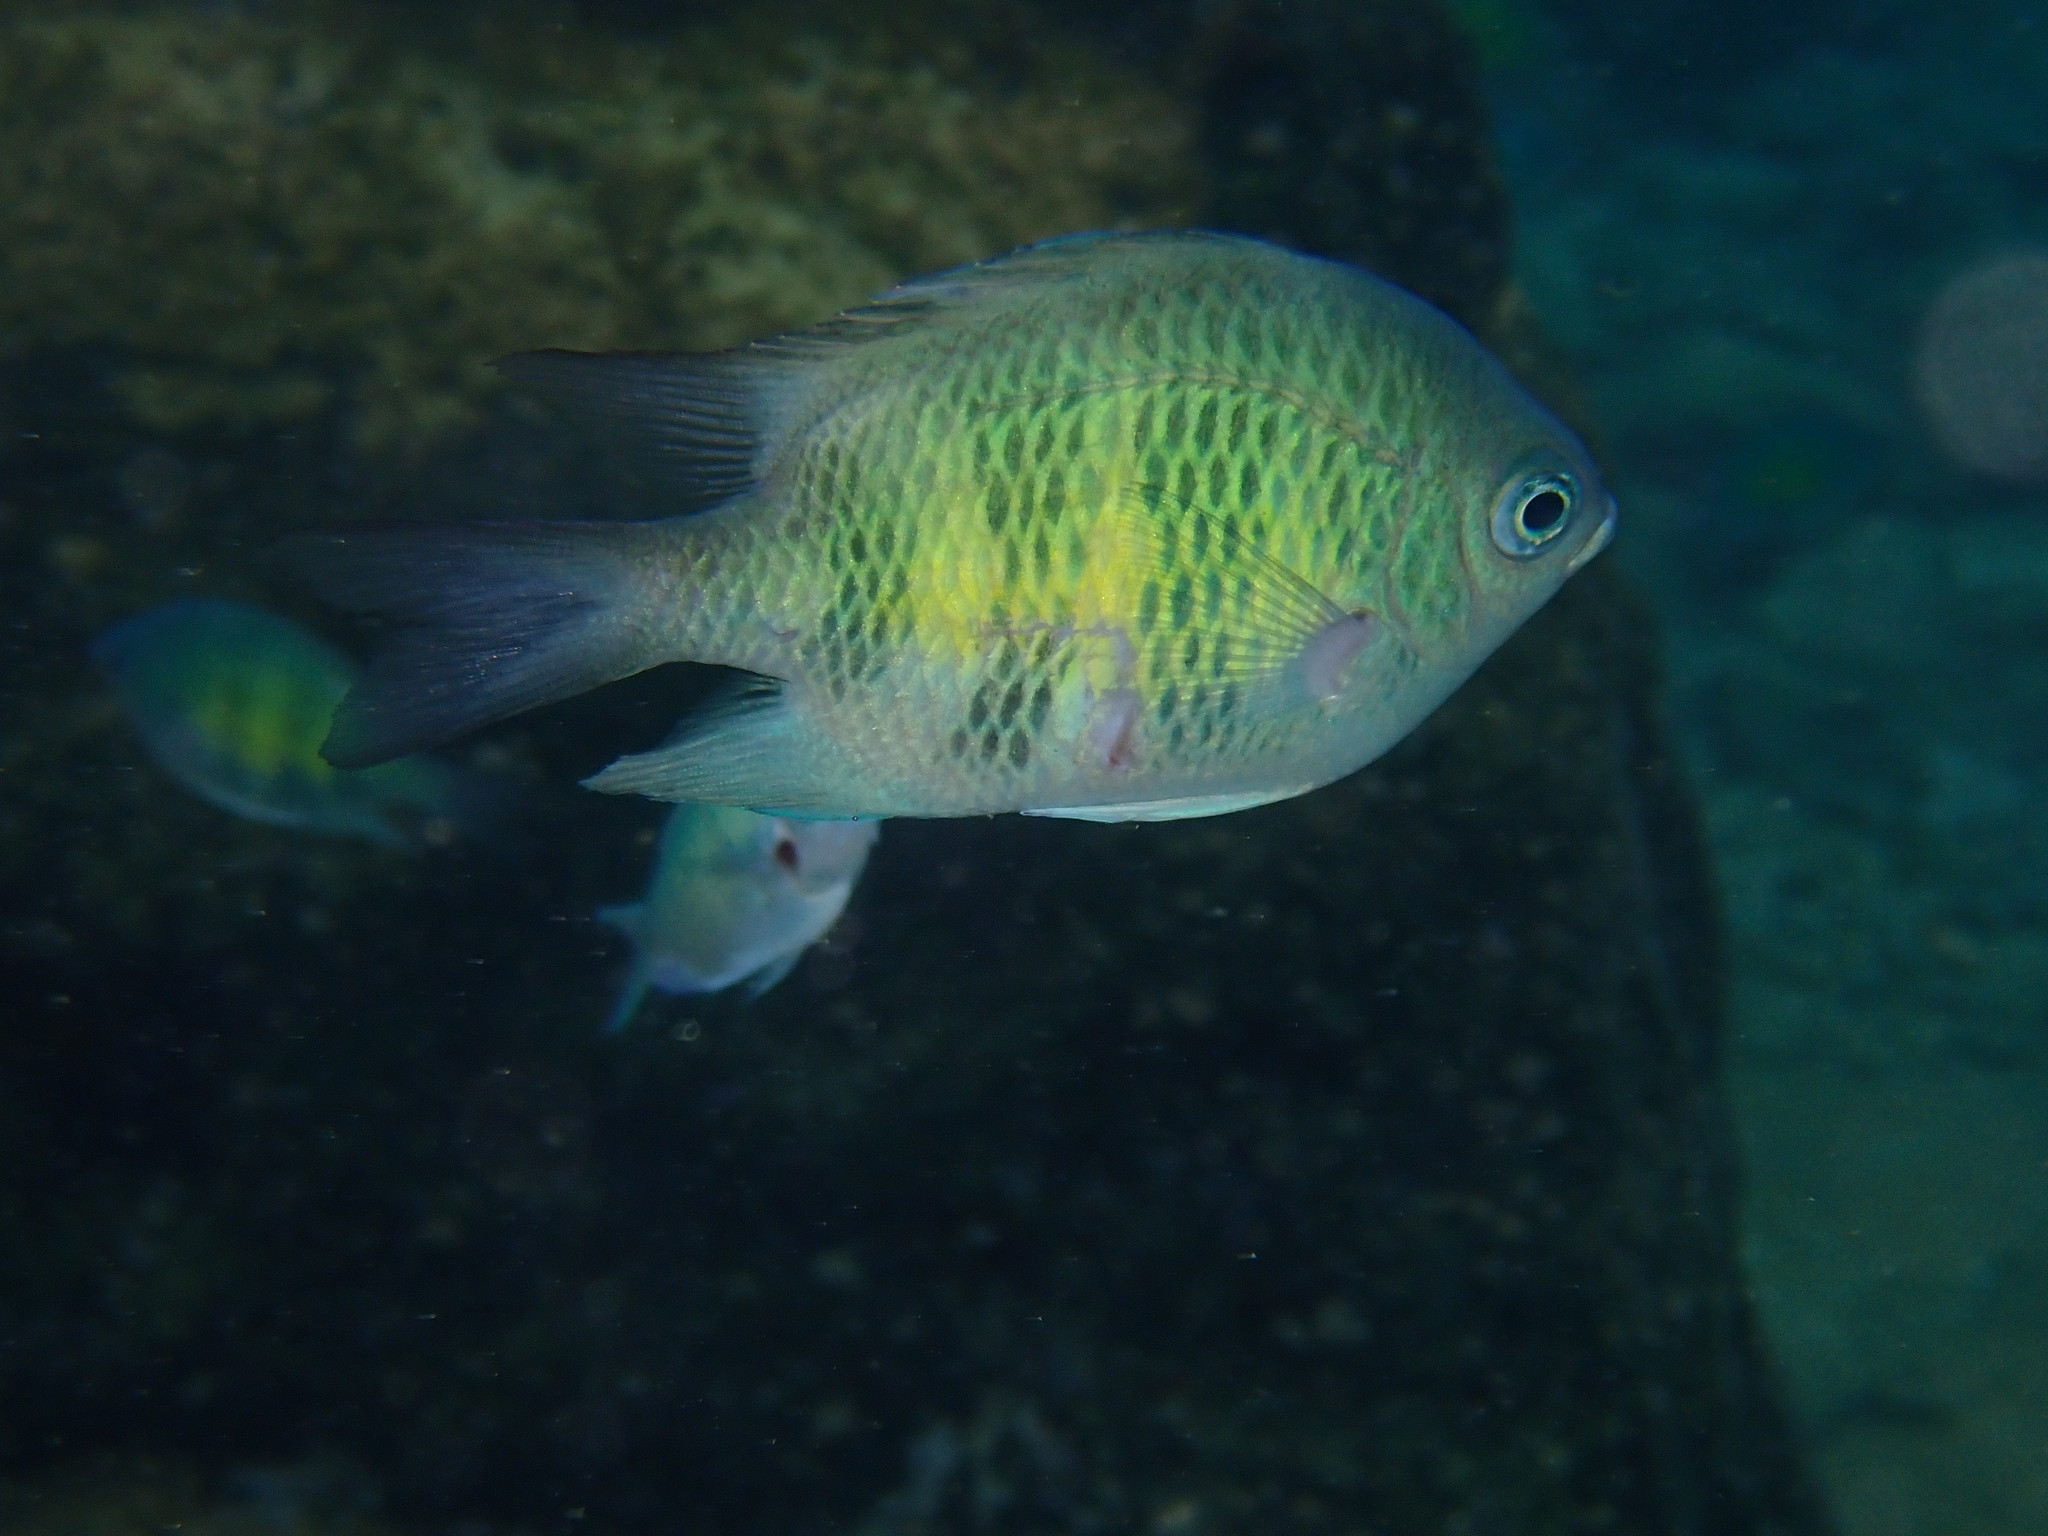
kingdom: Animalia
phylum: Chordata
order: Perciformes
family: Pomacentridae
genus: Amblyglyphidodon
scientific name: Amblyglyphidodon curacao
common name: Staghorn damsel
